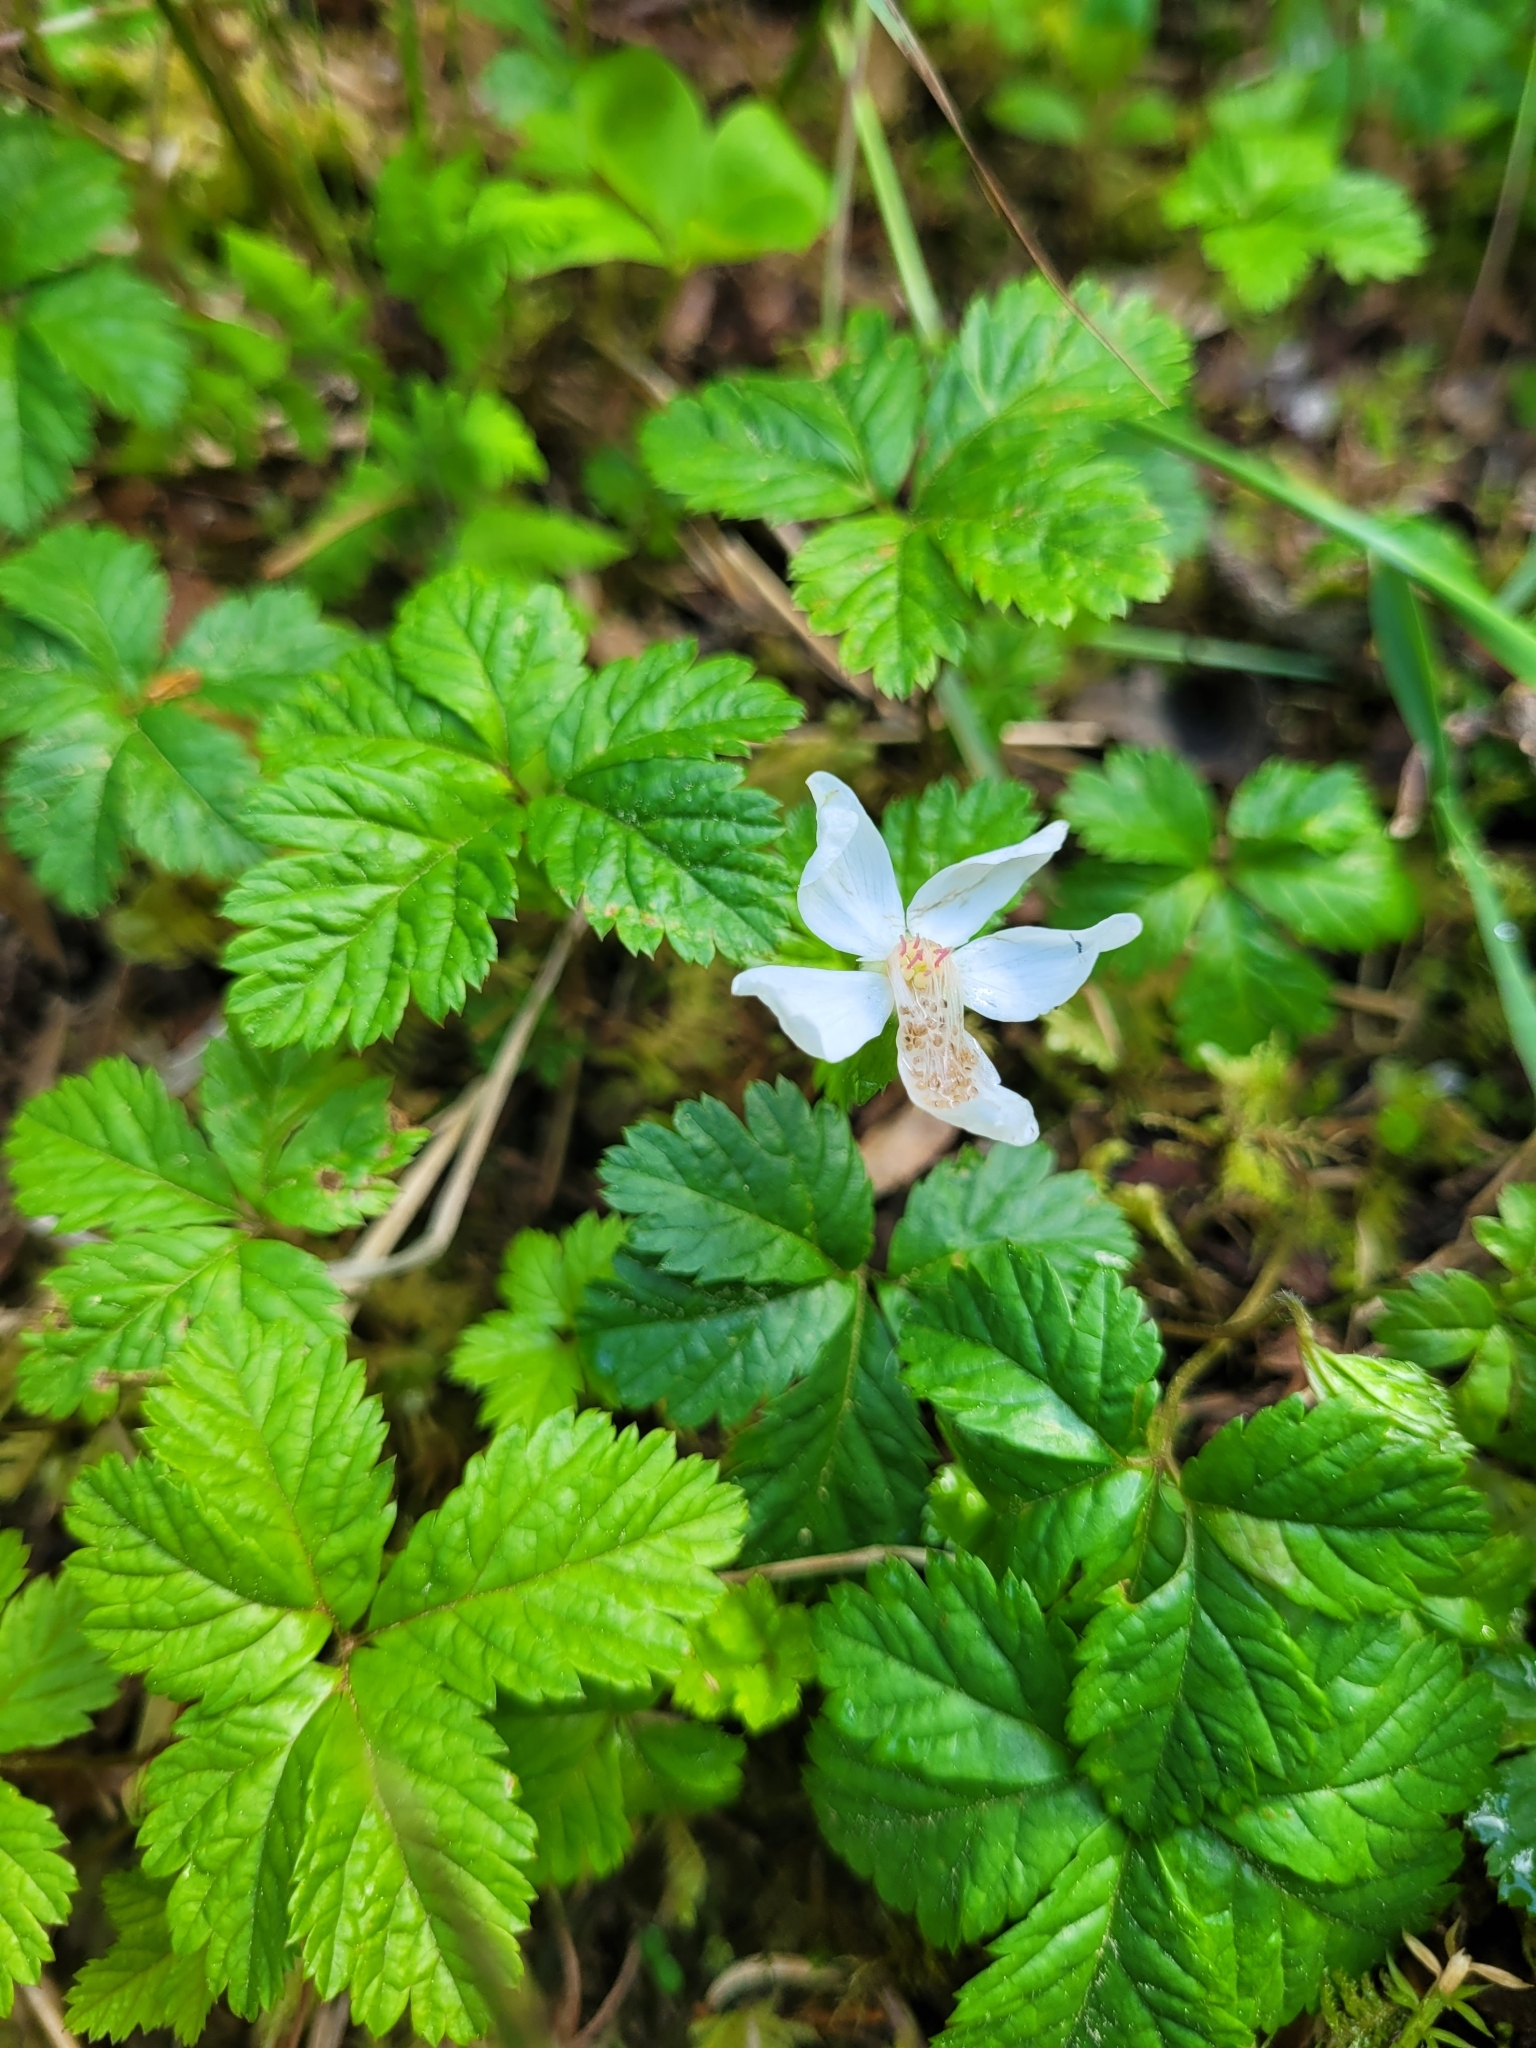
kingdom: Plantae
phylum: Tracheophyta
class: Magnoliopsida
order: Rosales
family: Rosaceae
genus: Rubus
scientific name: Rubus pedatus
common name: Creeping raspberry
